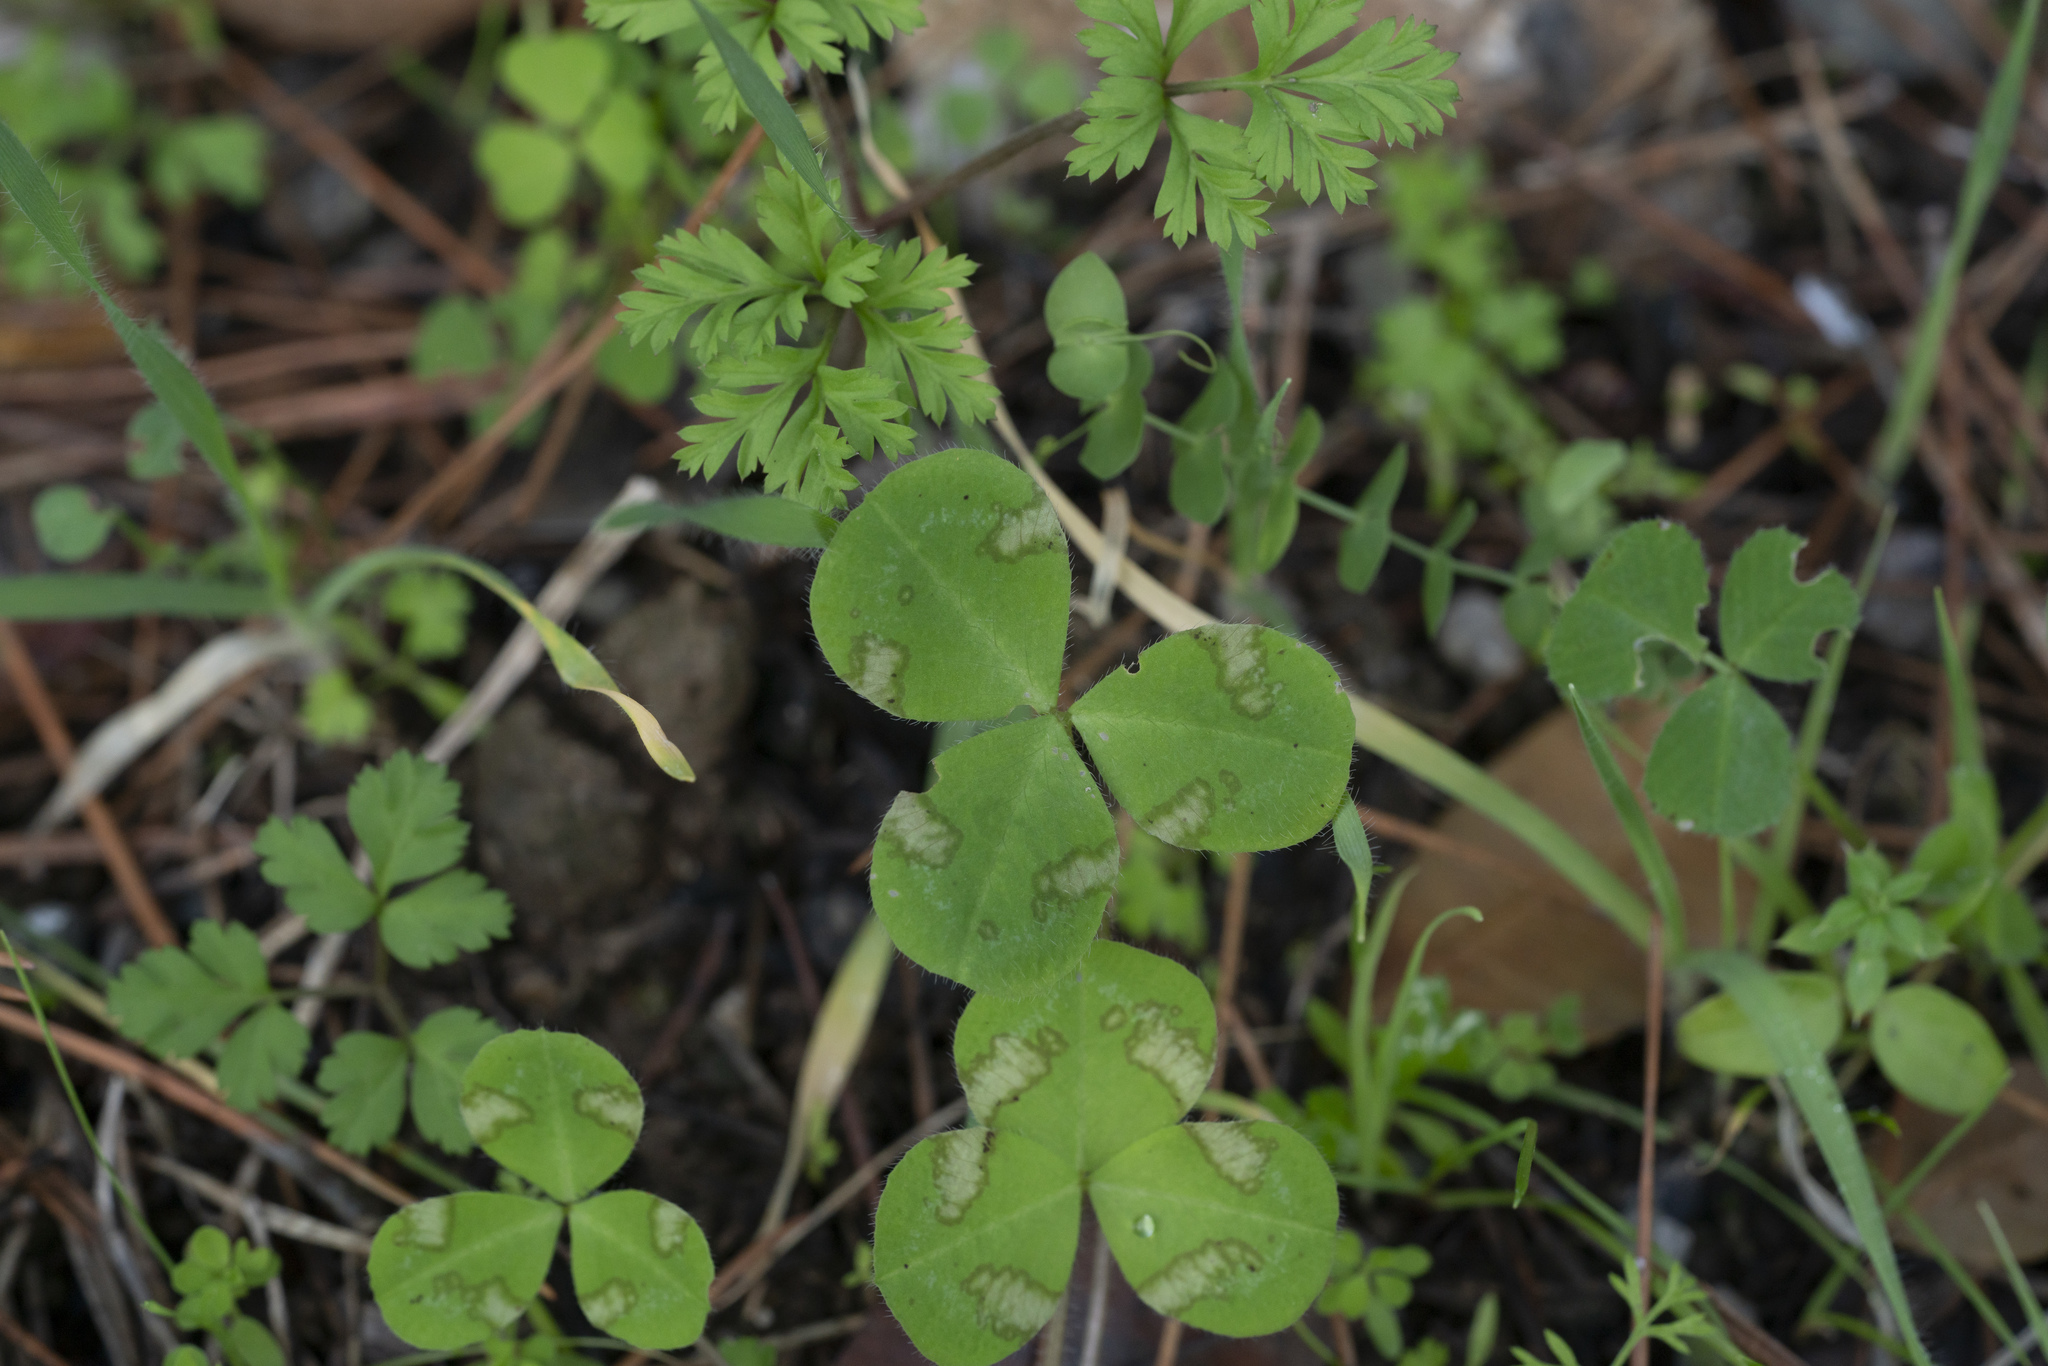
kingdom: Plantae
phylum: Tracheophyta
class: Magnoliopsida
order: Fabales
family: Fabaceae
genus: Trifolium
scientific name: Trifolium
